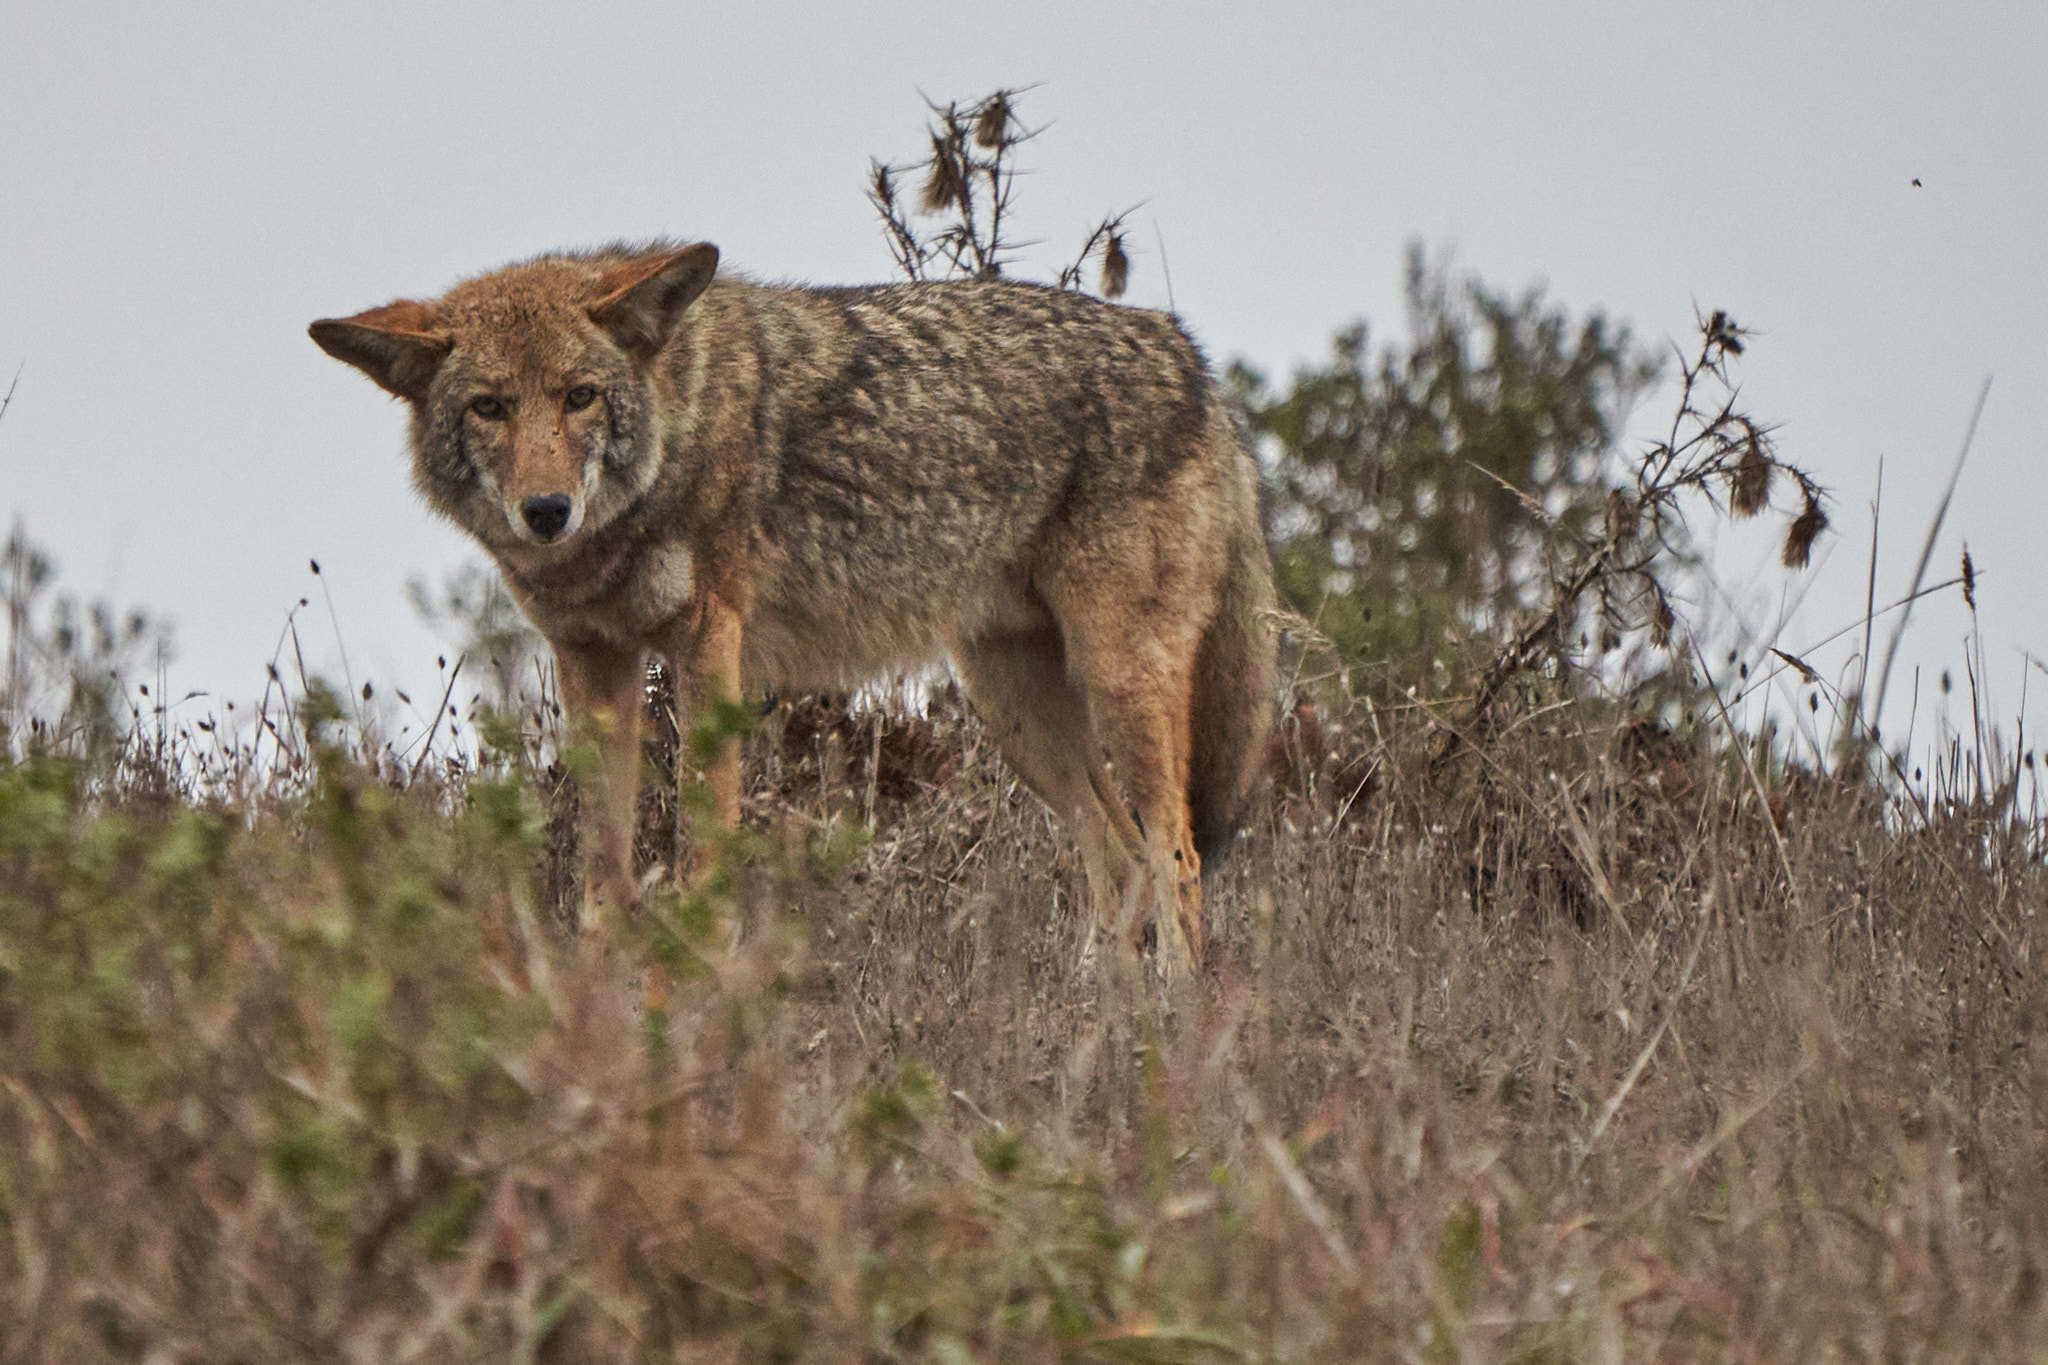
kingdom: Animalia
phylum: Chordata
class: Mammalia
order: Carnivora
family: Canidae
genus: Canis
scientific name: Canis latrans
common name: Coyote
